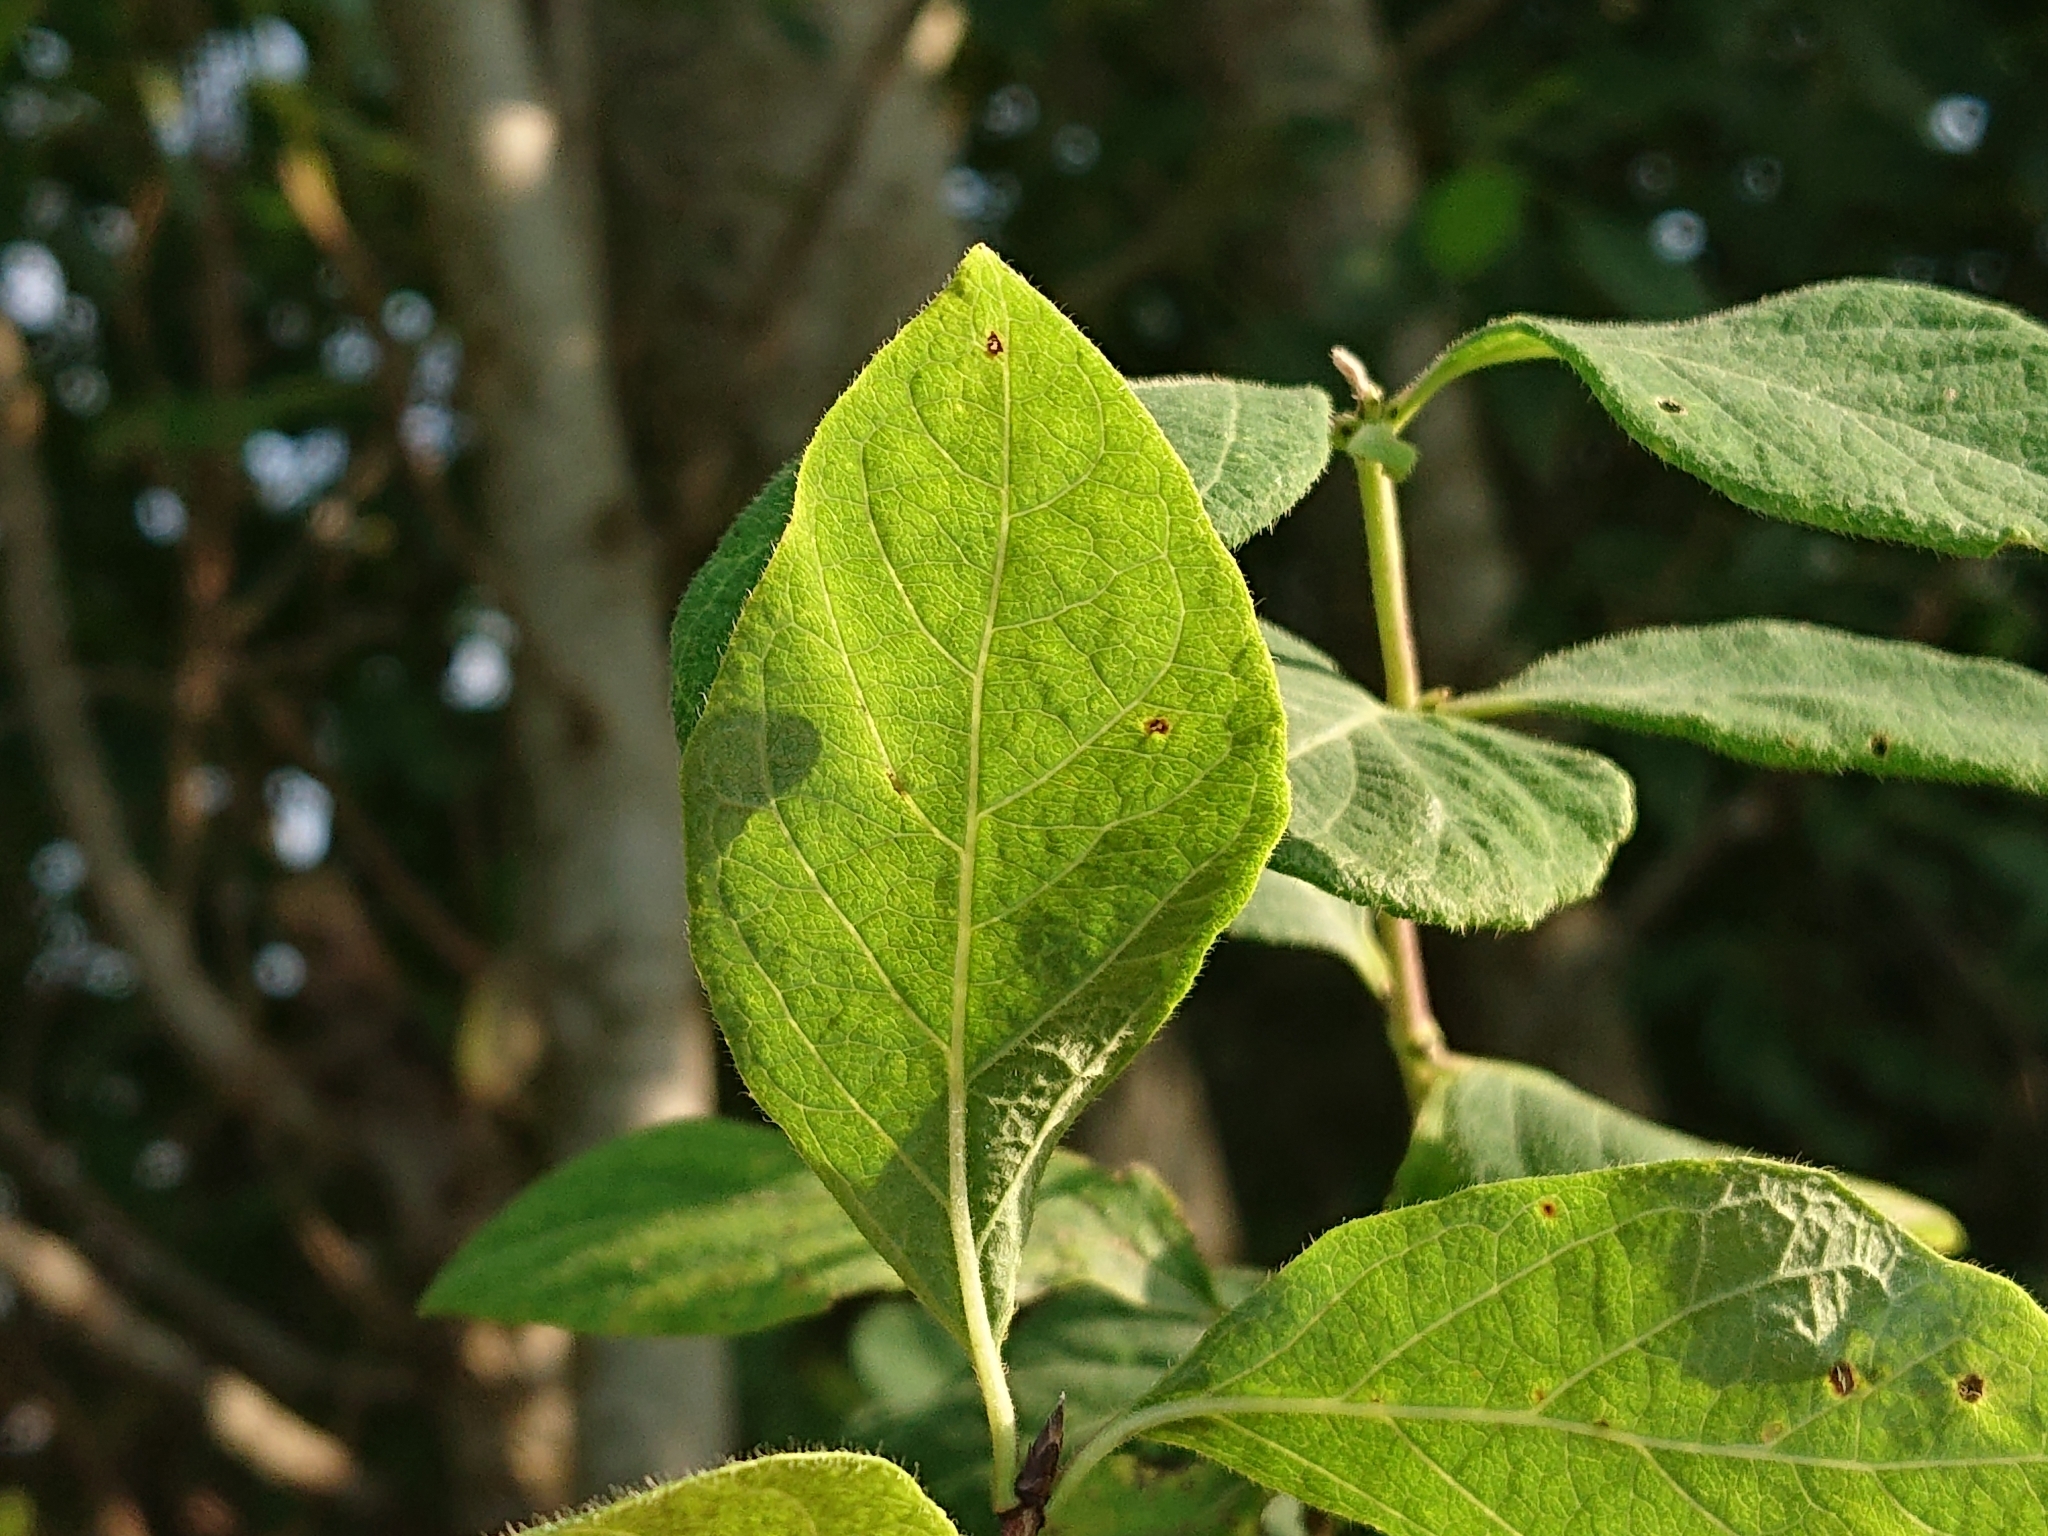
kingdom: Plantae
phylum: Tracheophyta
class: Magnoliopsida
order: Dipsacales
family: Caprifoliaceae
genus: Lonicera
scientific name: Lonicera xylosteum
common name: Fly honeysuckle
